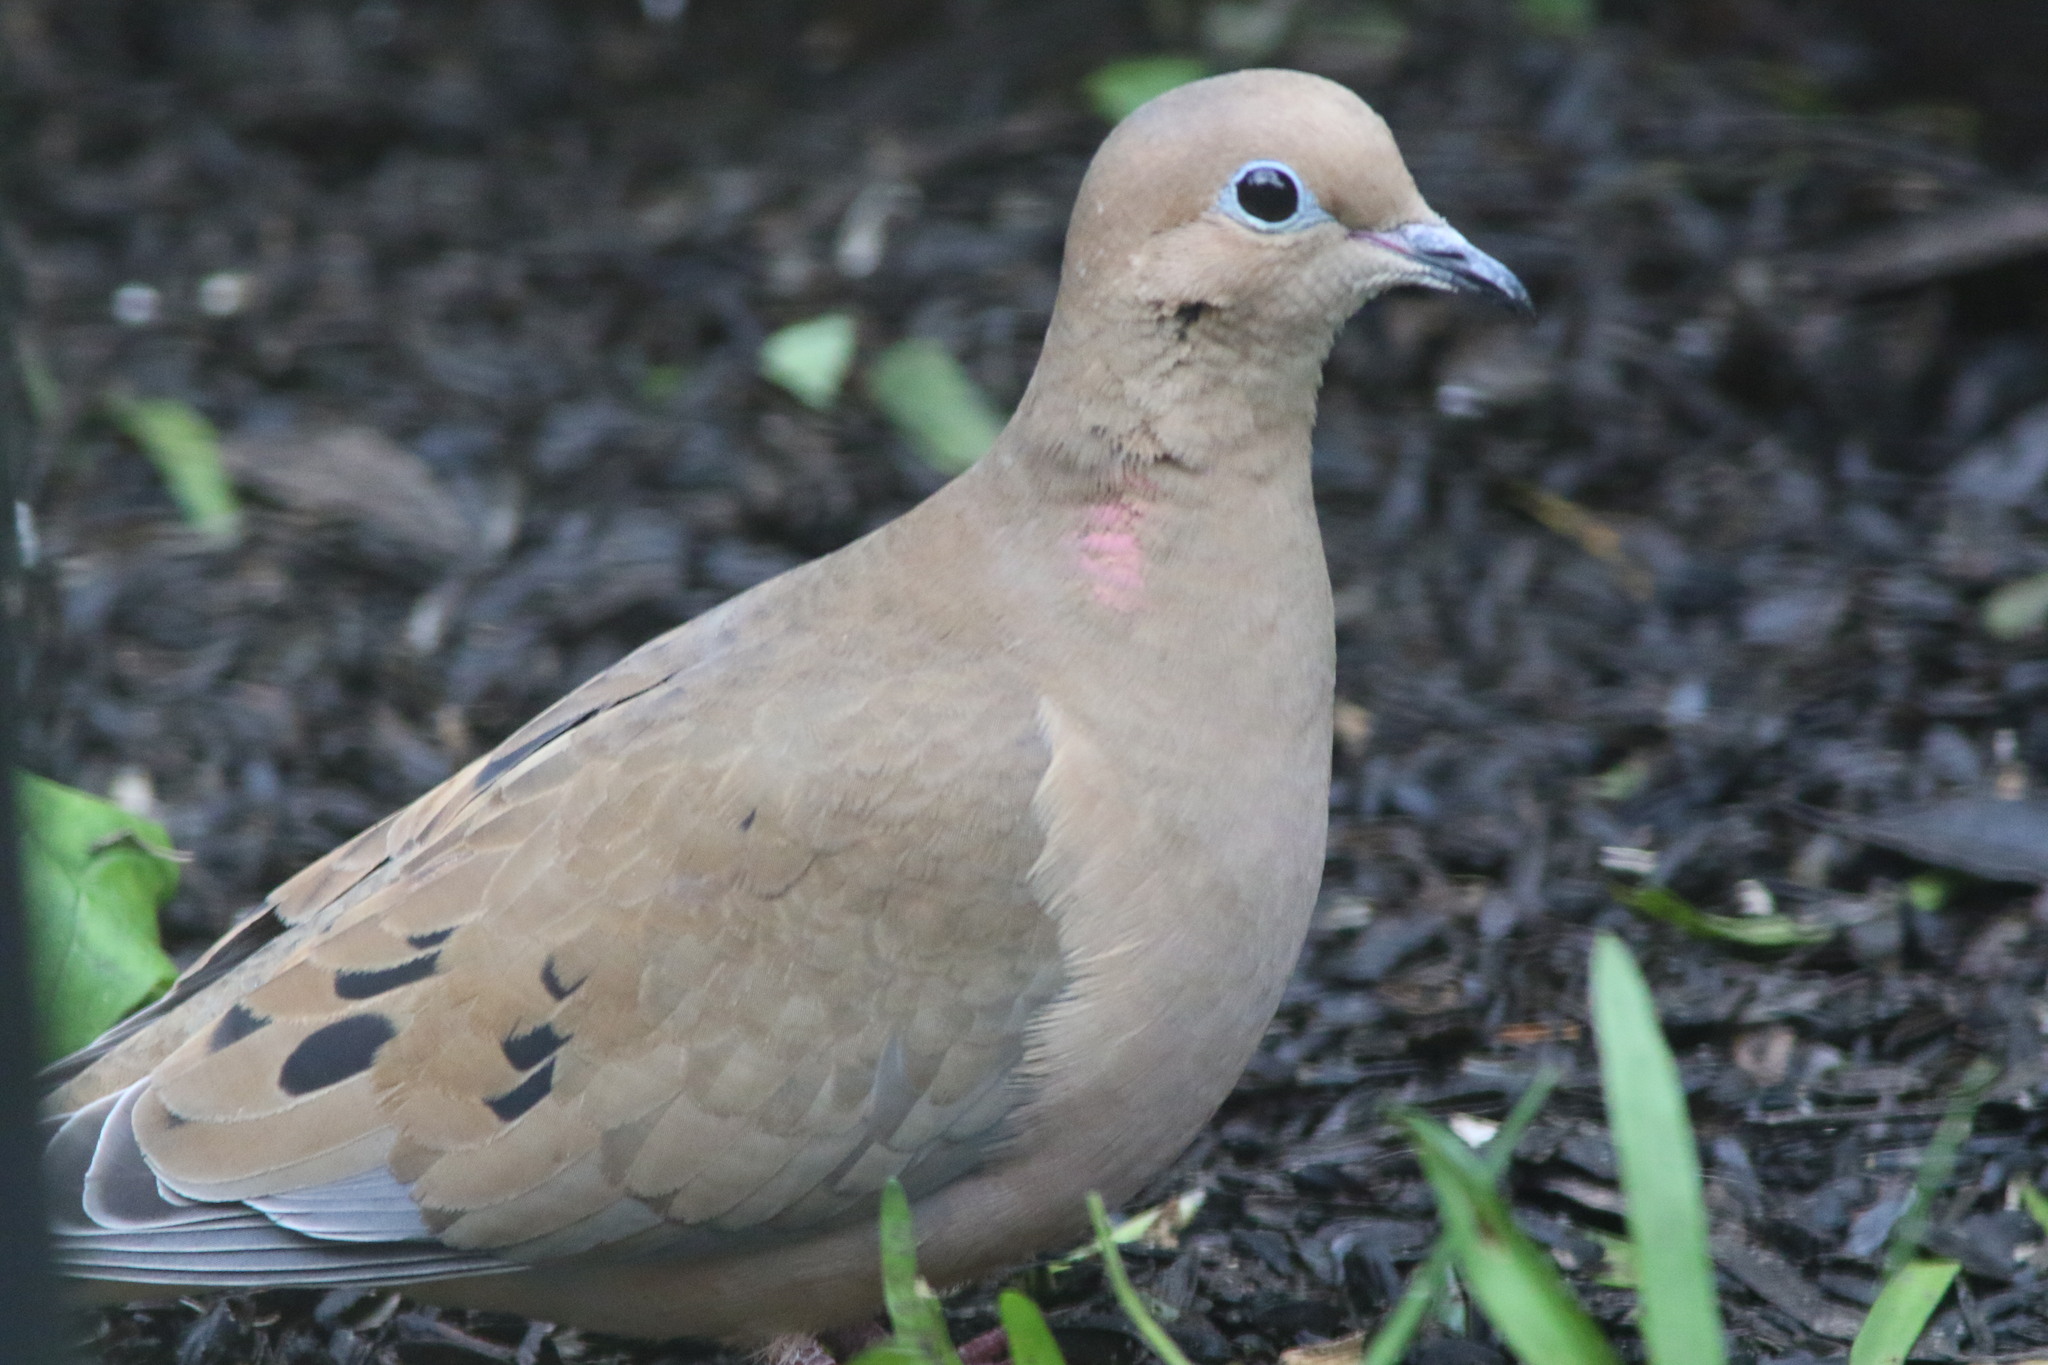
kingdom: Animalia
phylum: Chordata
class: Aves
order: Columbiformes
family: Columbidae
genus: Zenaida
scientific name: Zenaida macroura
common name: Mourning dove
